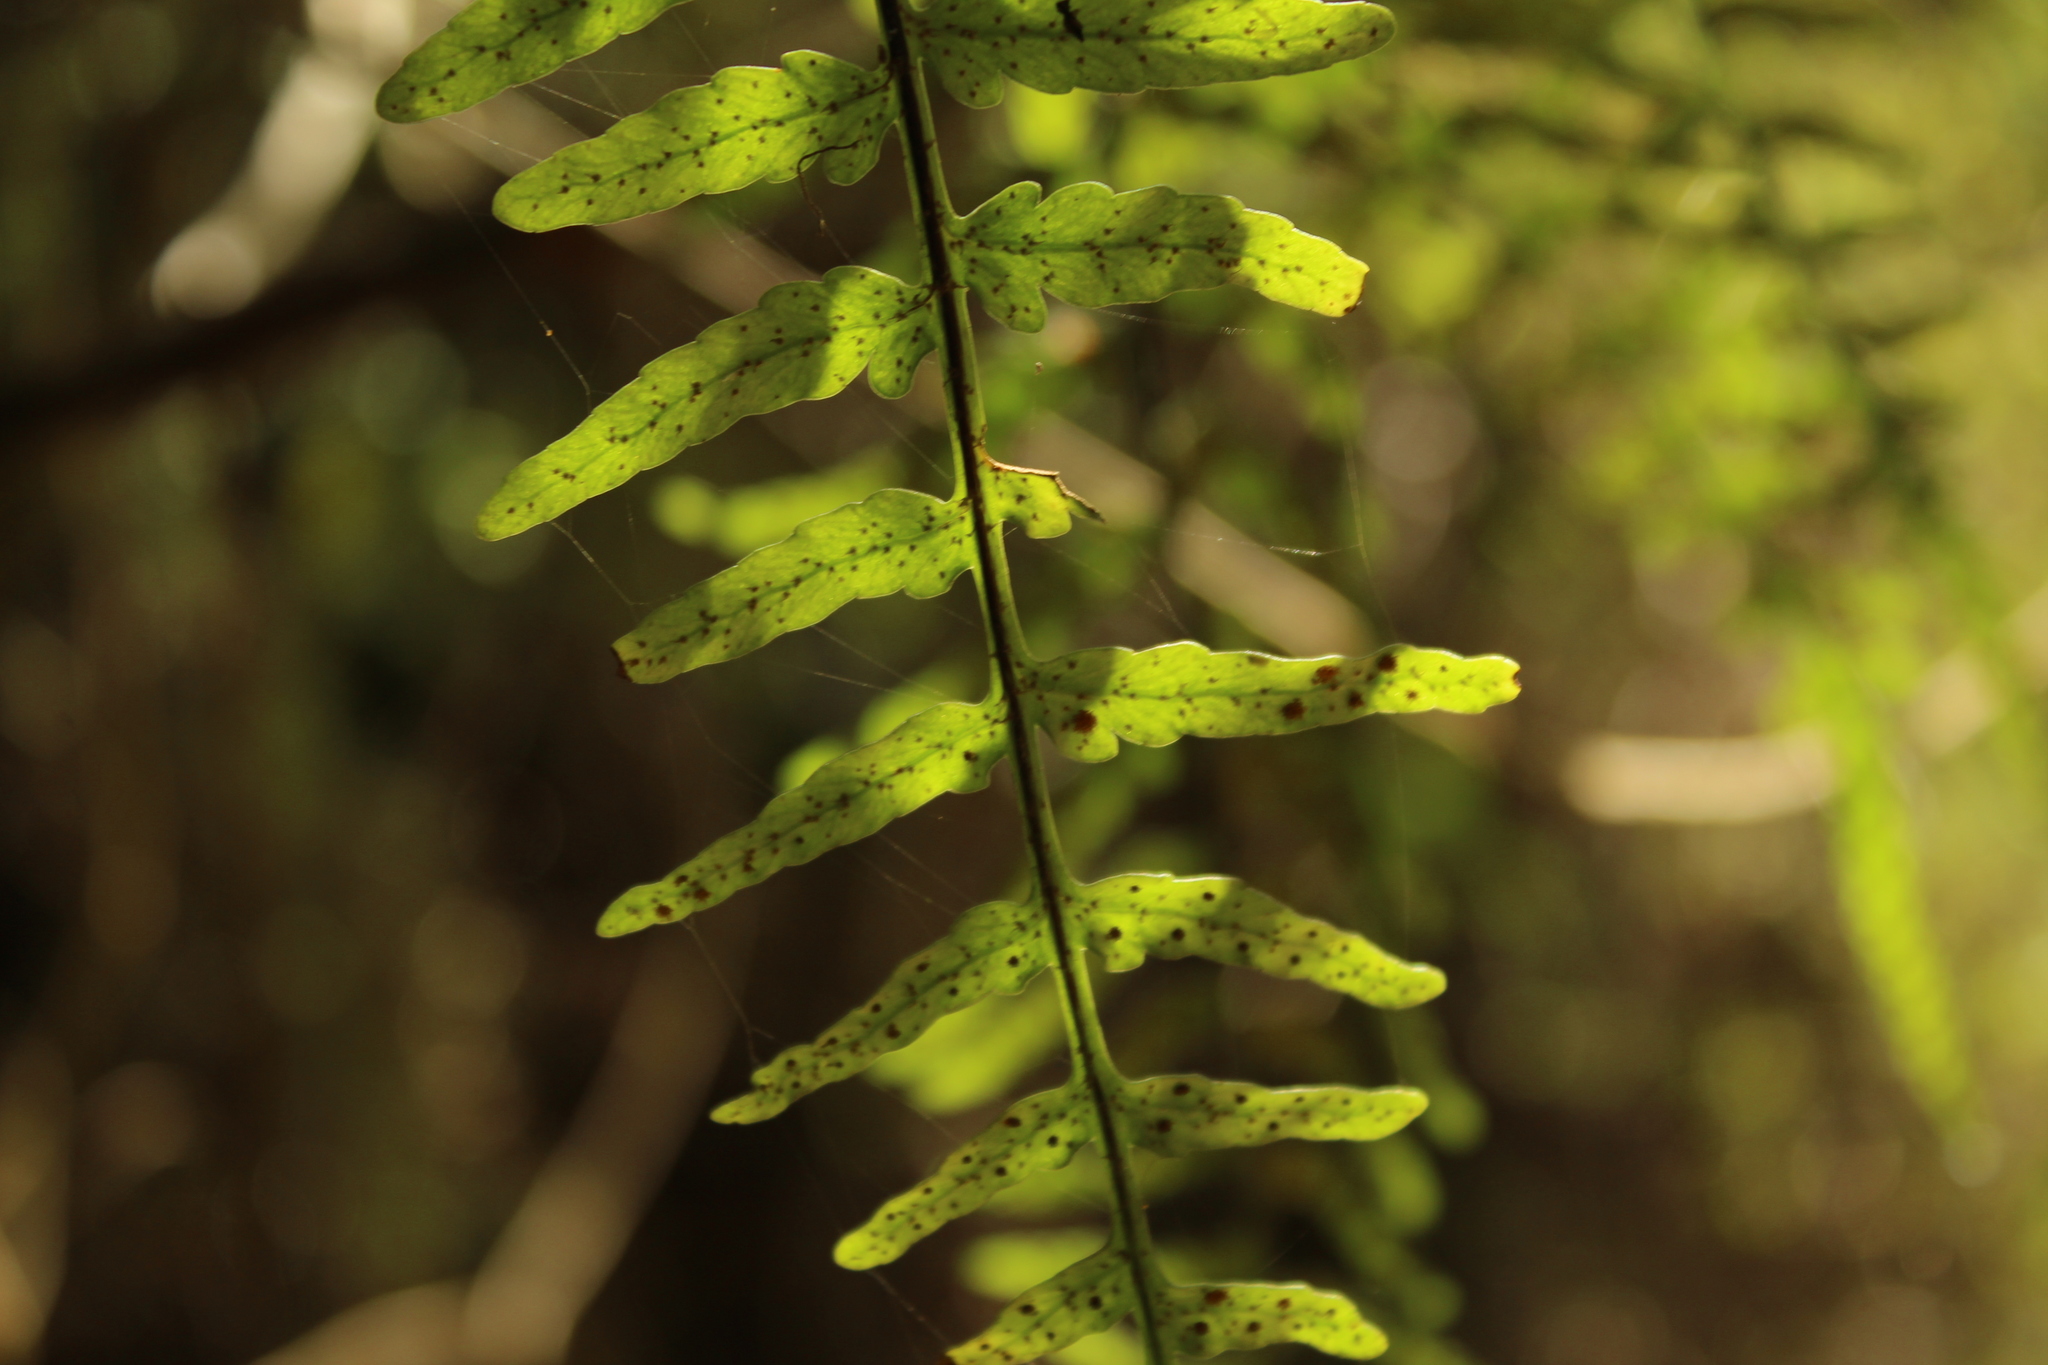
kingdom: Plantae
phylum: Tracheophyta
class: Polypodiopsida
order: Polypodiales
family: Polypodiaceae
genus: Pleopeltis
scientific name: Pleopeltis murora
